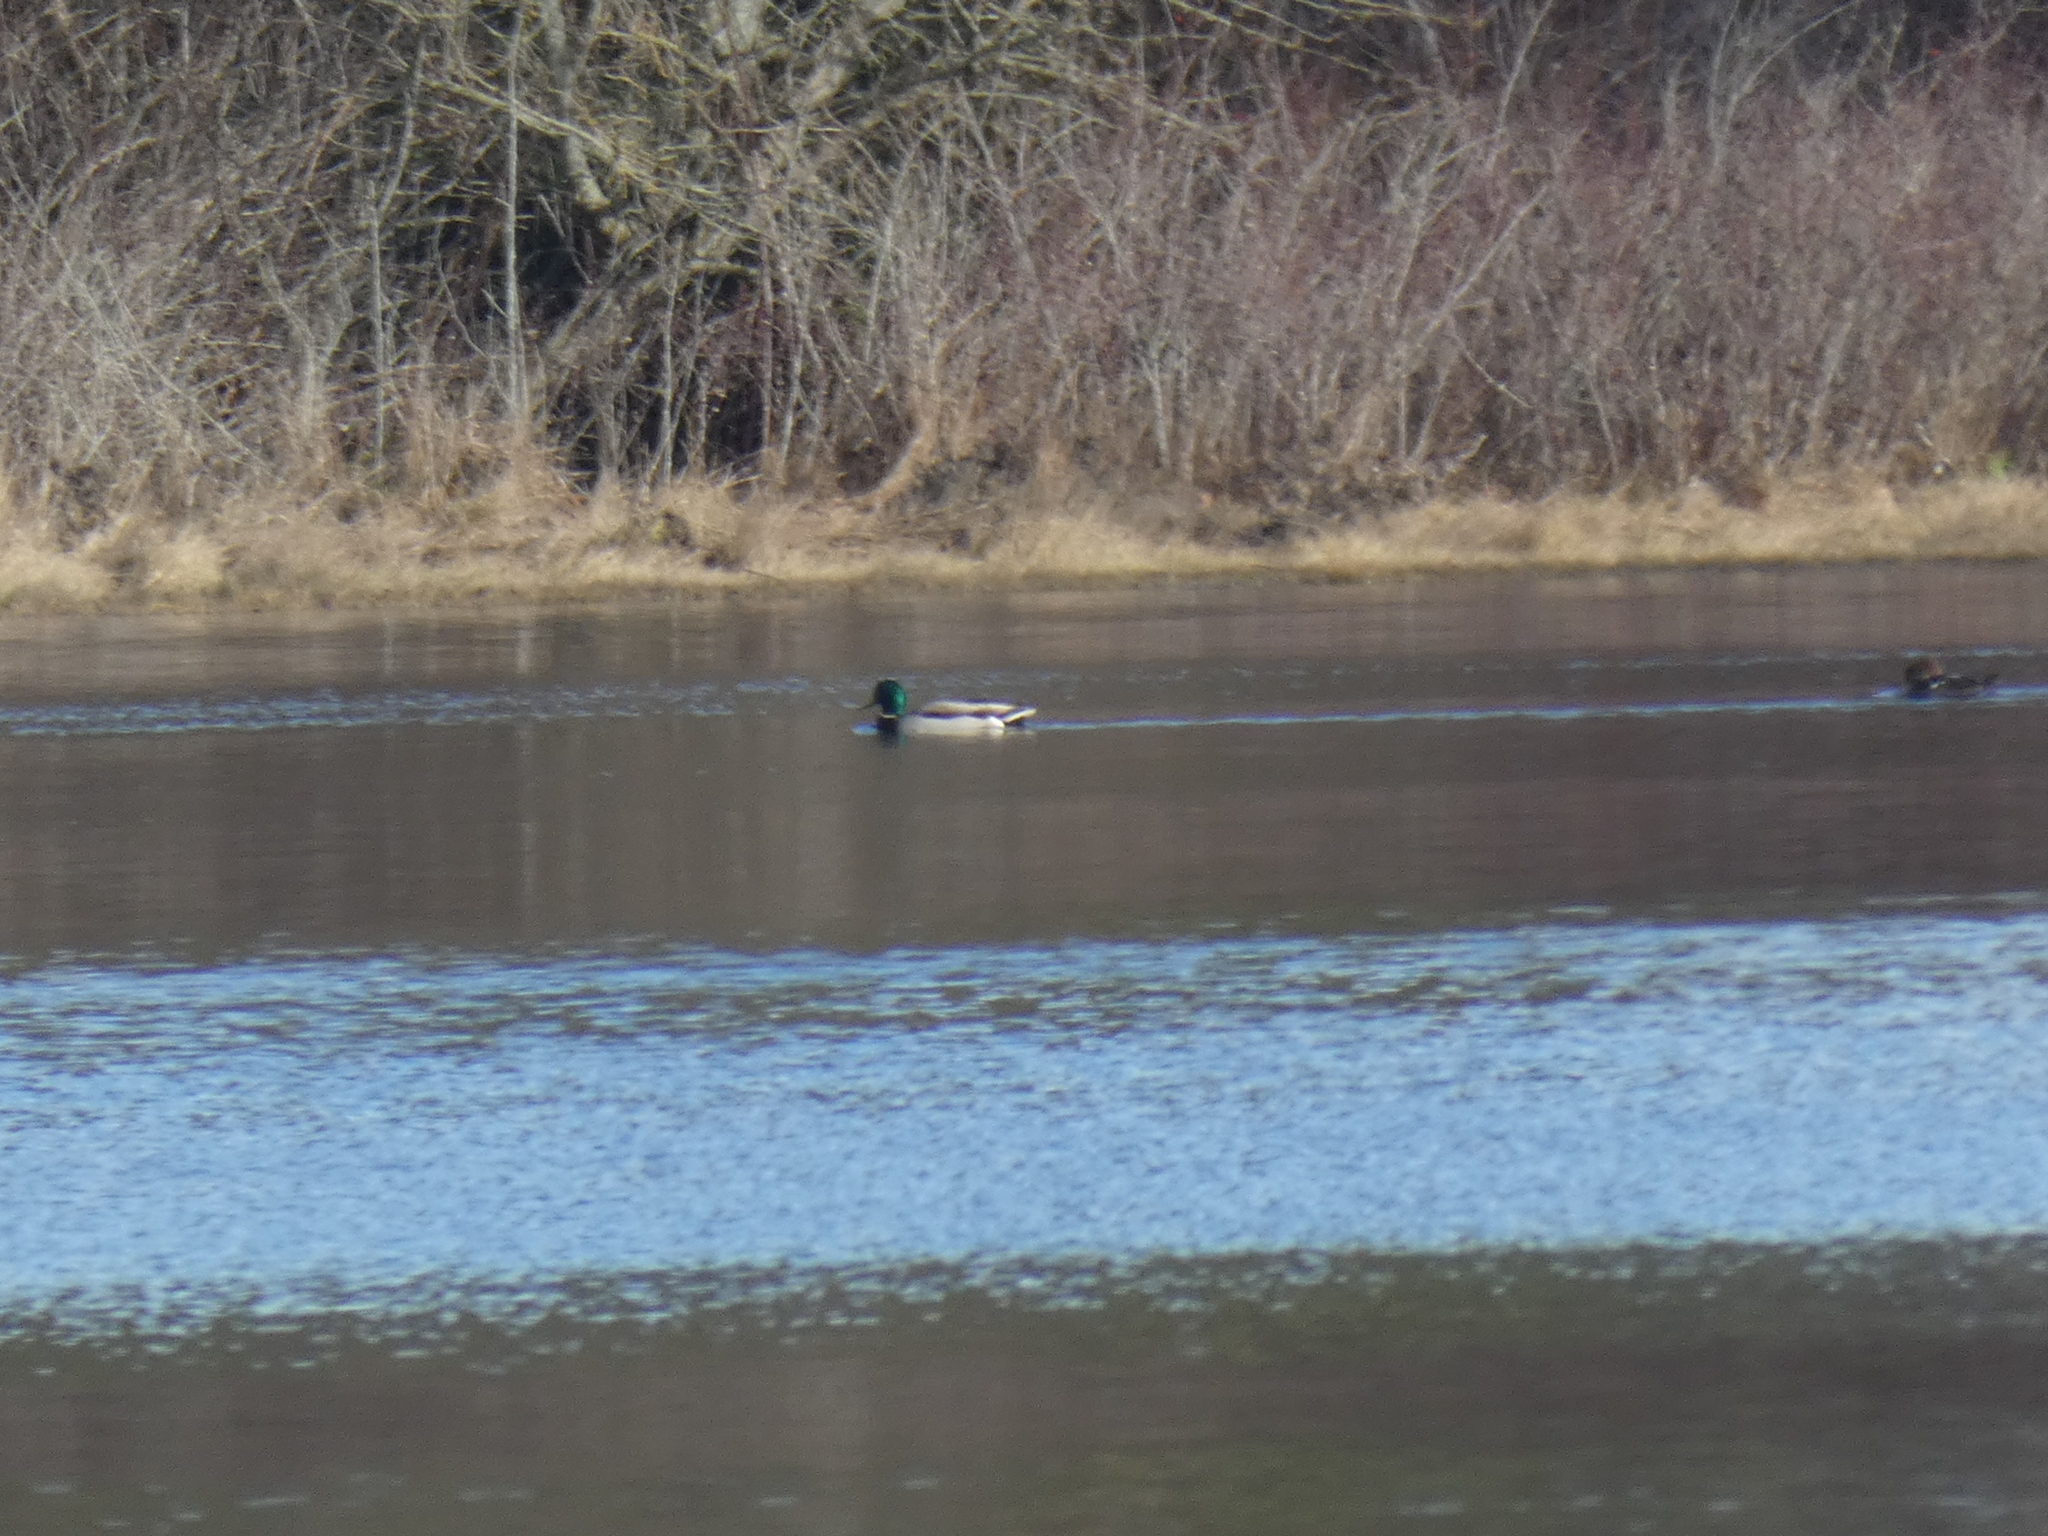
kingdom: Animalia
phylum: Chordata
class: Aves
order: Anseriformes
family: Anatidae
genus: Anas
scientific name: Anas platyrhynchos
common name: Mallard
